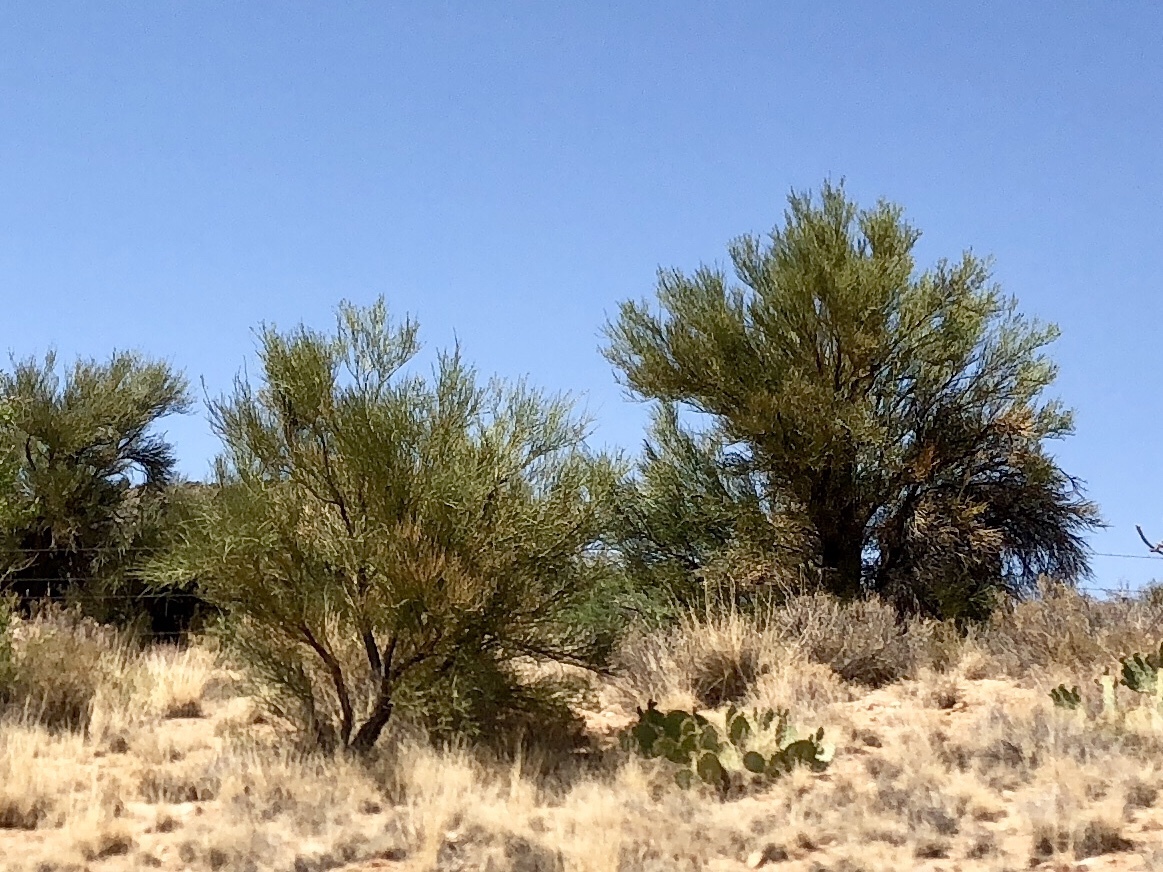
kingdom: Plantae
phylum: Tracheophyta
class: Magnoliopsida
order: Celastrales
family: Celastraceae
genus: Canotia
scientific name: Canotia holacantha
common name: Crucifixion thorns
